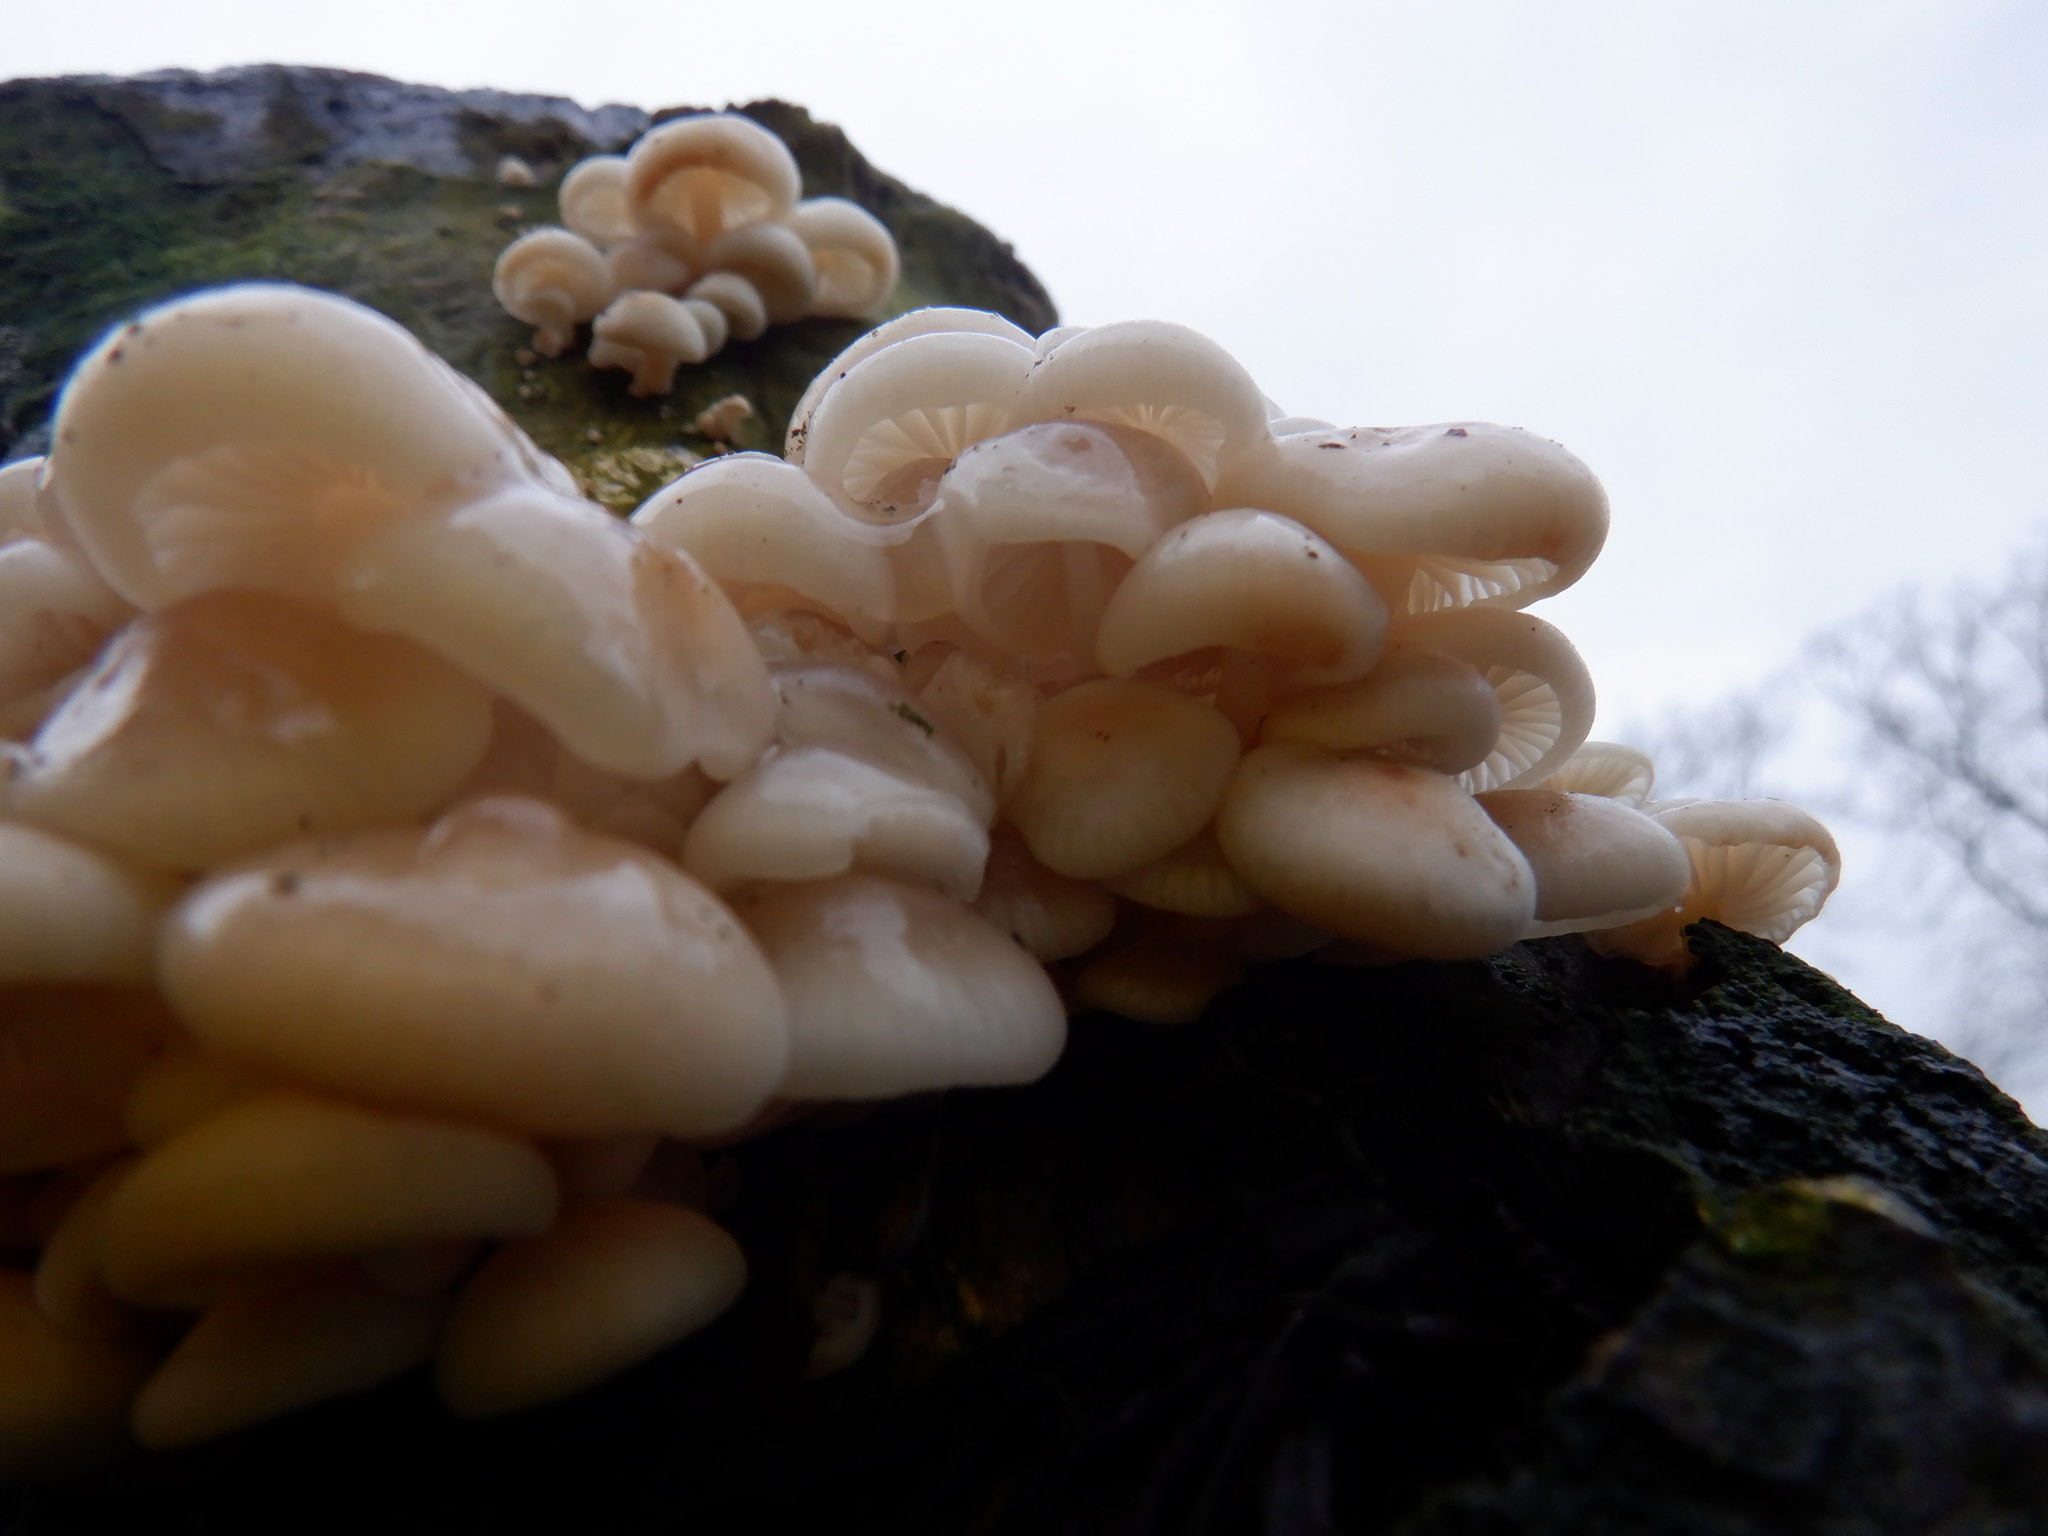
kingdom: Fungi
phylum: Basidiomycota
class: Agaricomycetes
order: Agaricales
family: Physalacriaceae
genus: Mucidula
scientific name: Mucidula mucida
